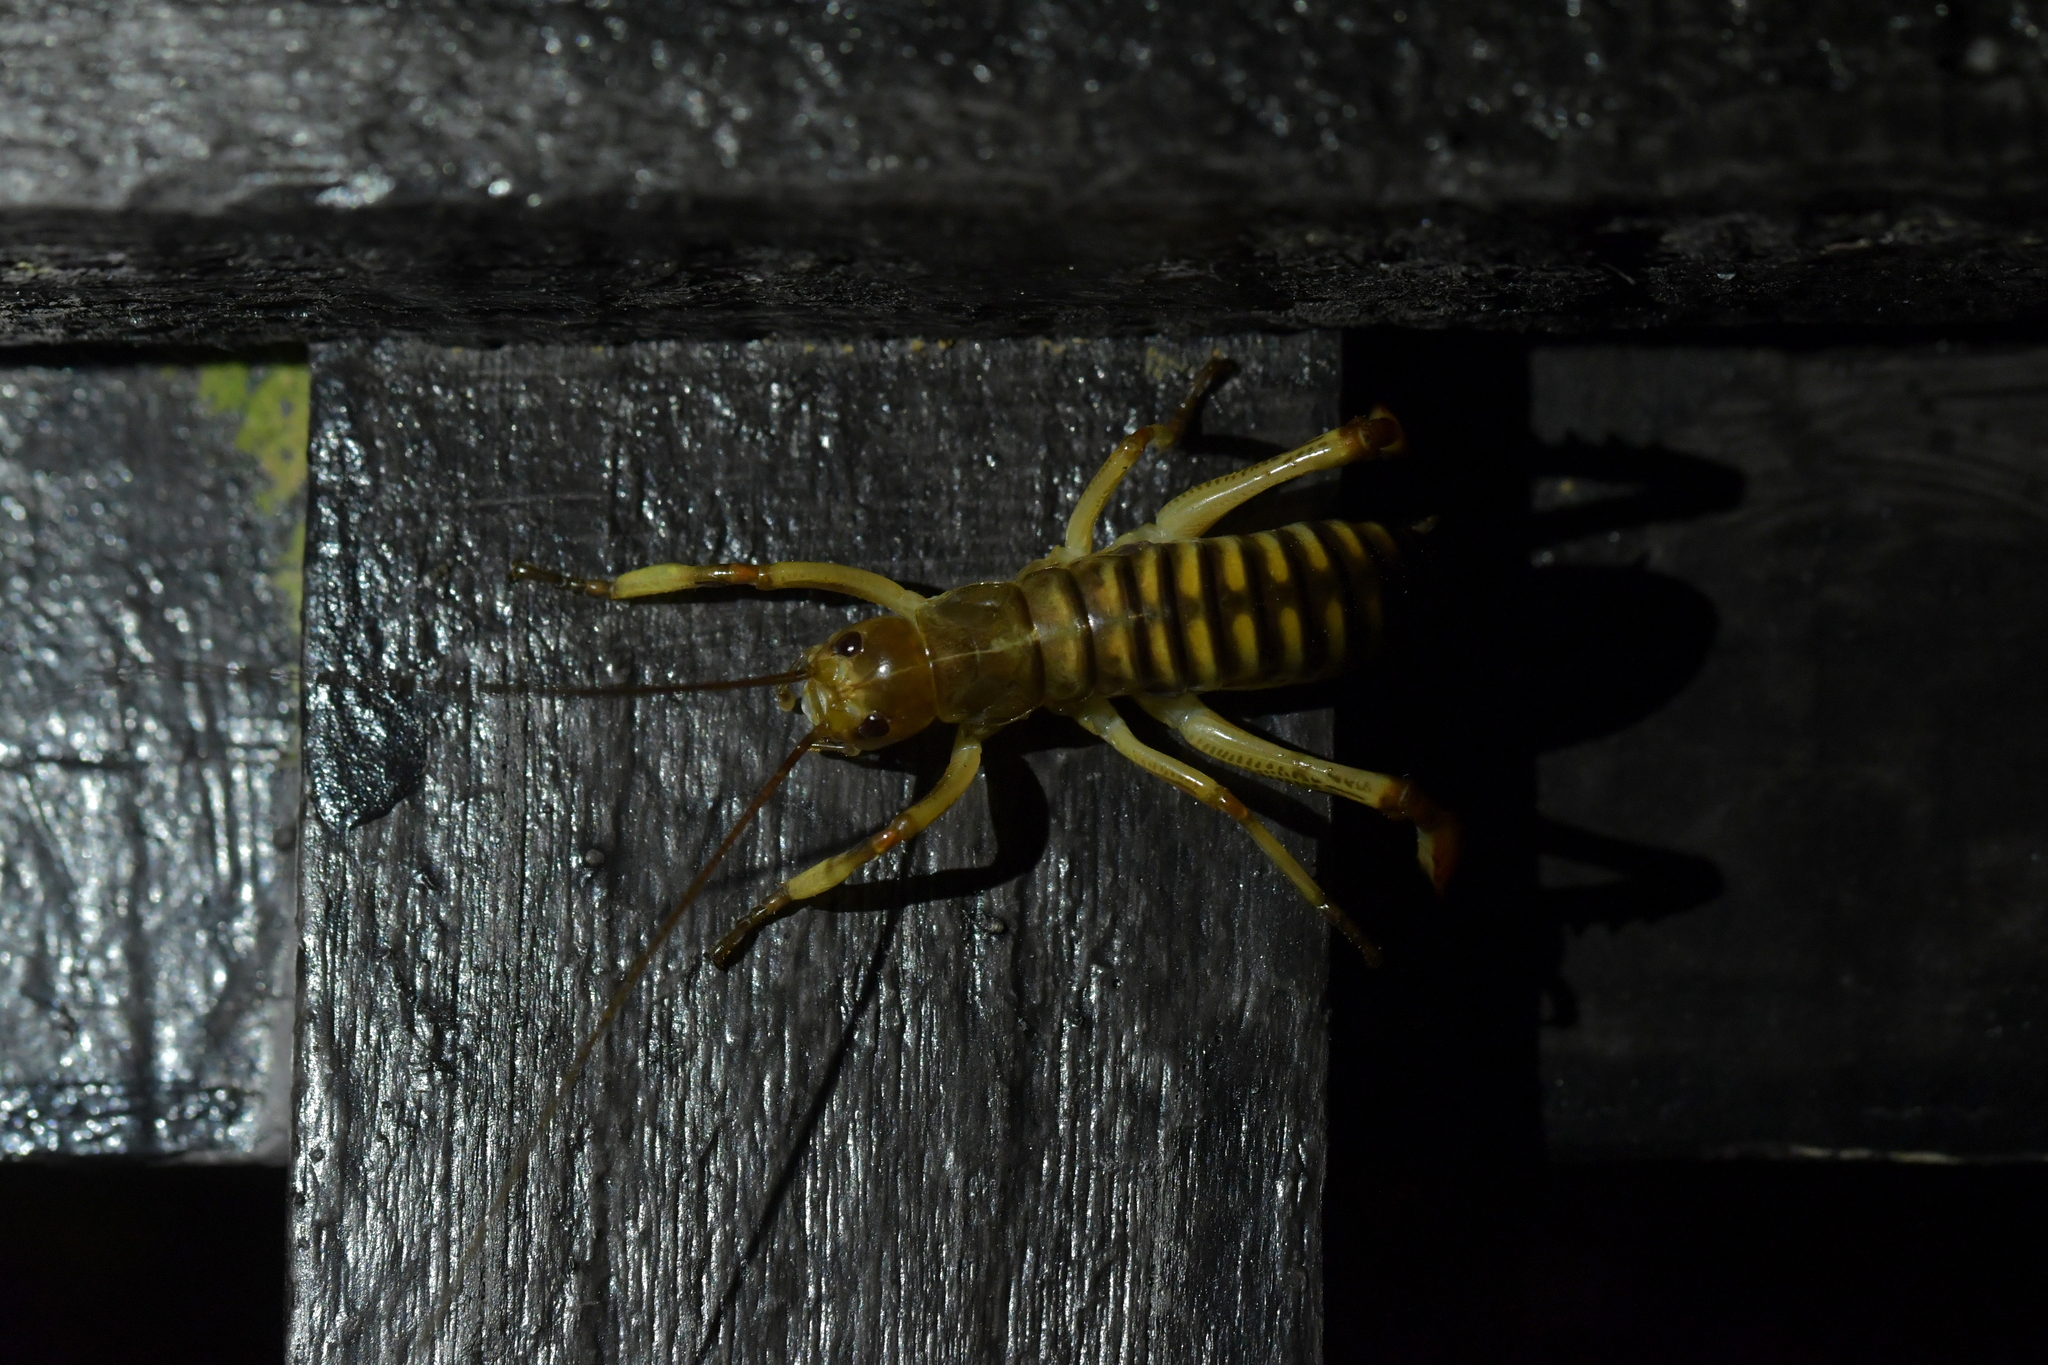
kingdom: Animalia
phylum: Arthropoda
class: Insecta
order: Orthoptera
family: Anostostomatidae
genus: Hemideina
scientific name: Hemideina crassidens
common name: Wellington tree weta
